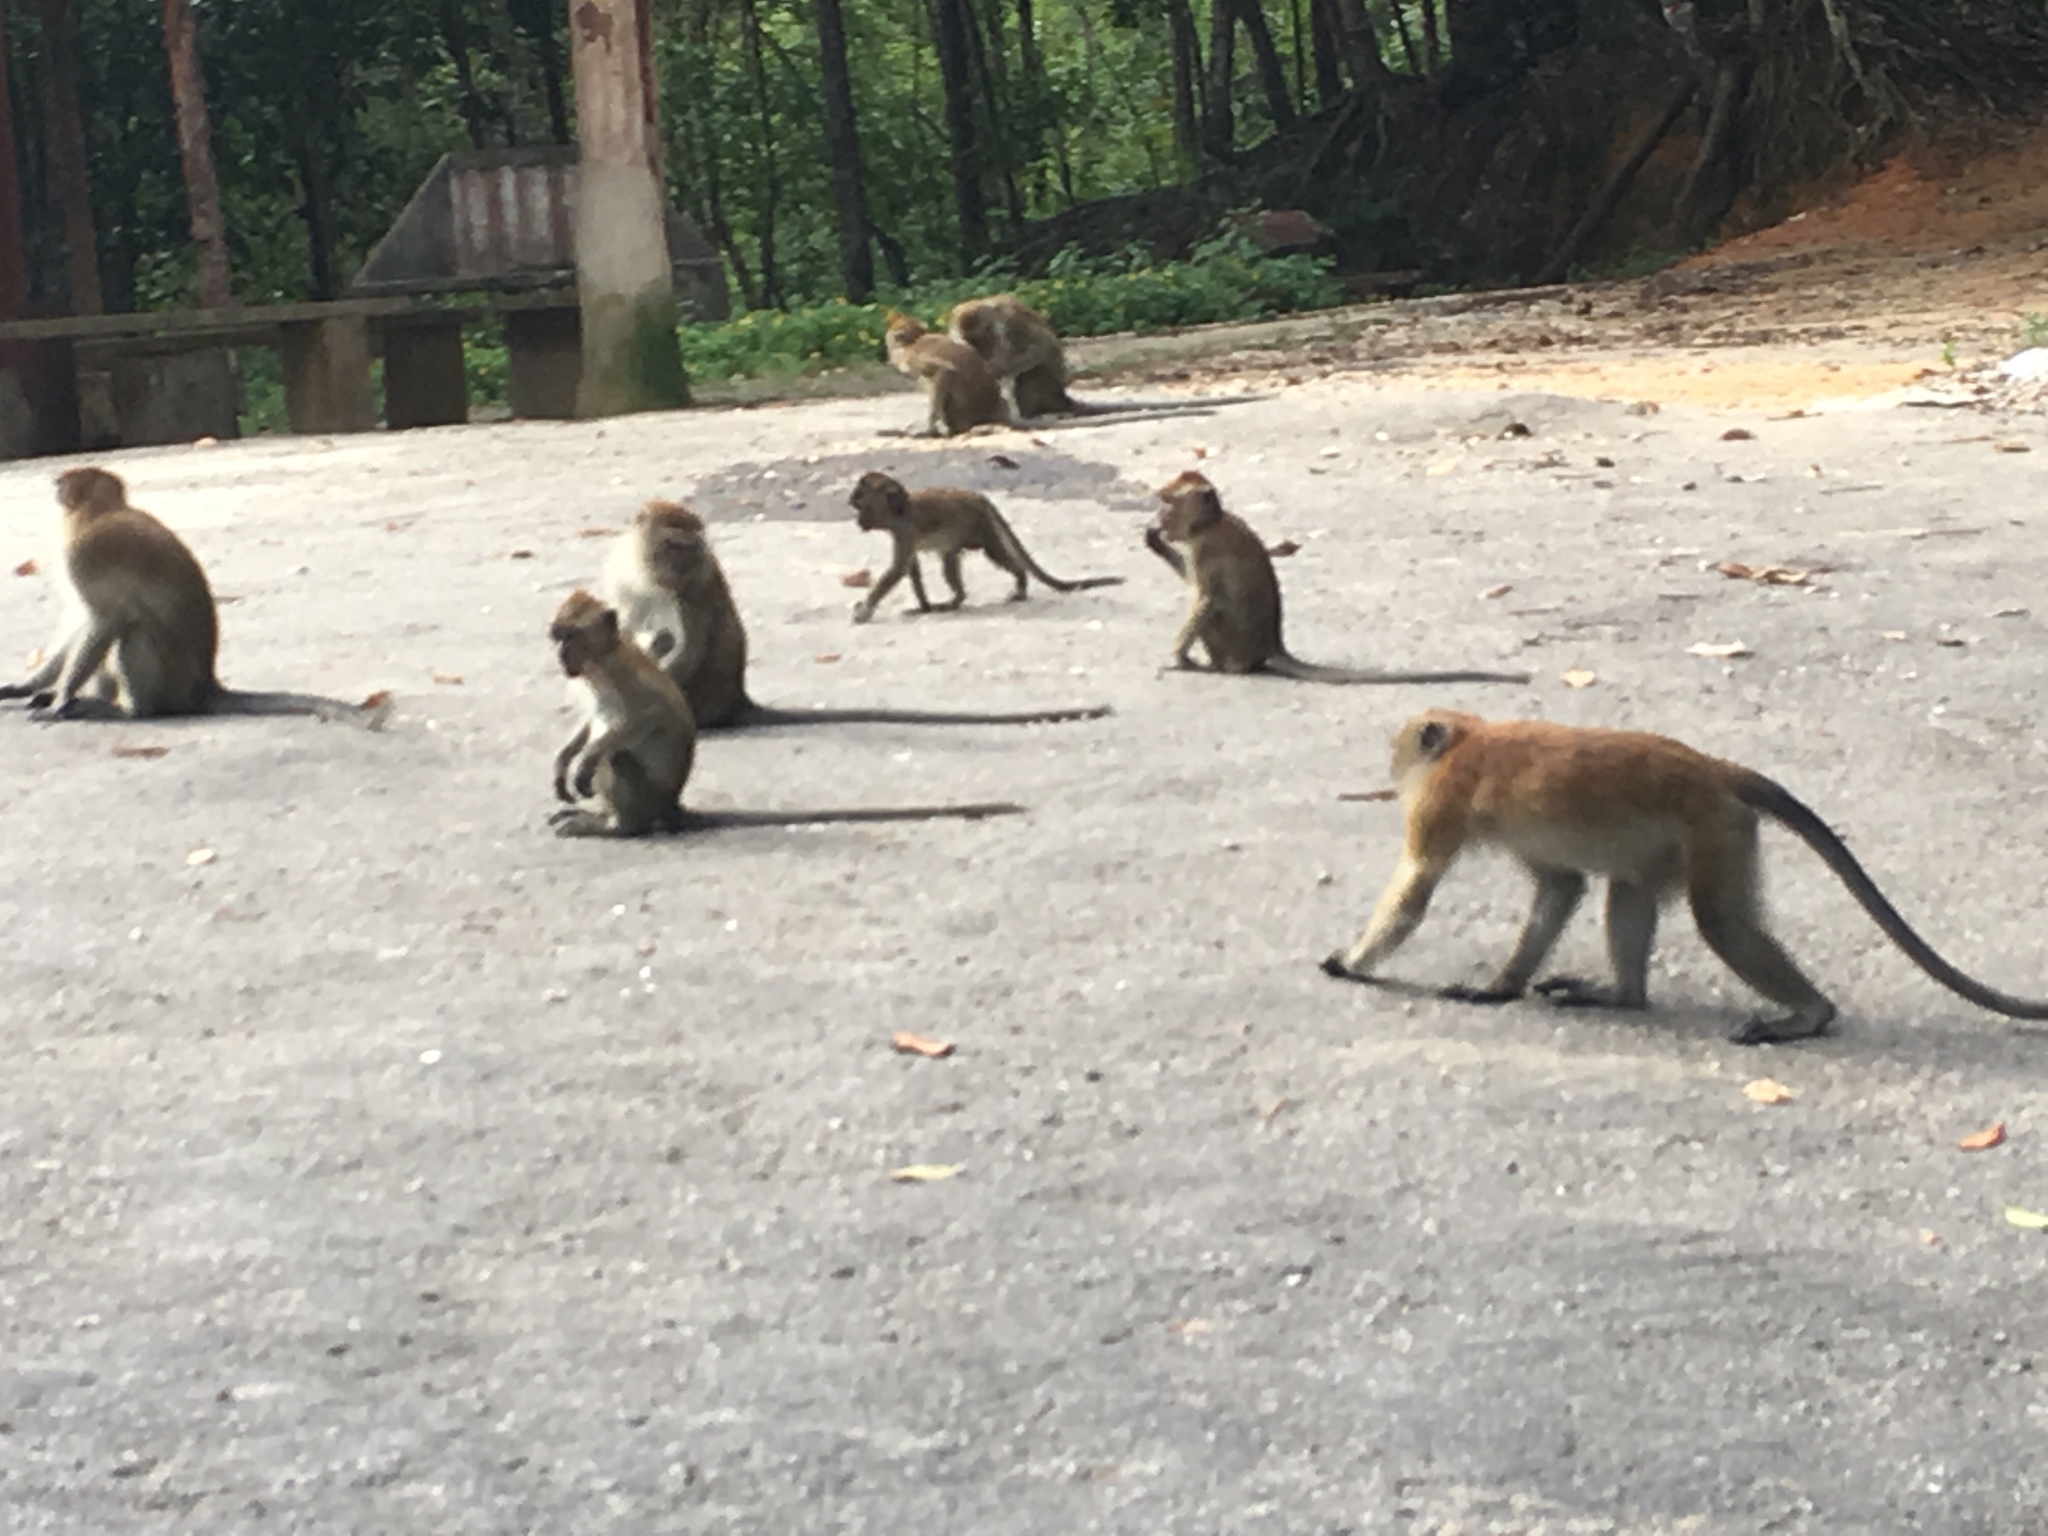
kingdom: Animalia
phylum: Chordata
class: Mammalia
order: Primates
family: Cercopithecidae
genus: Macaca
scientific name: Macaca fascicularis
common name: Crab-eating macaque
